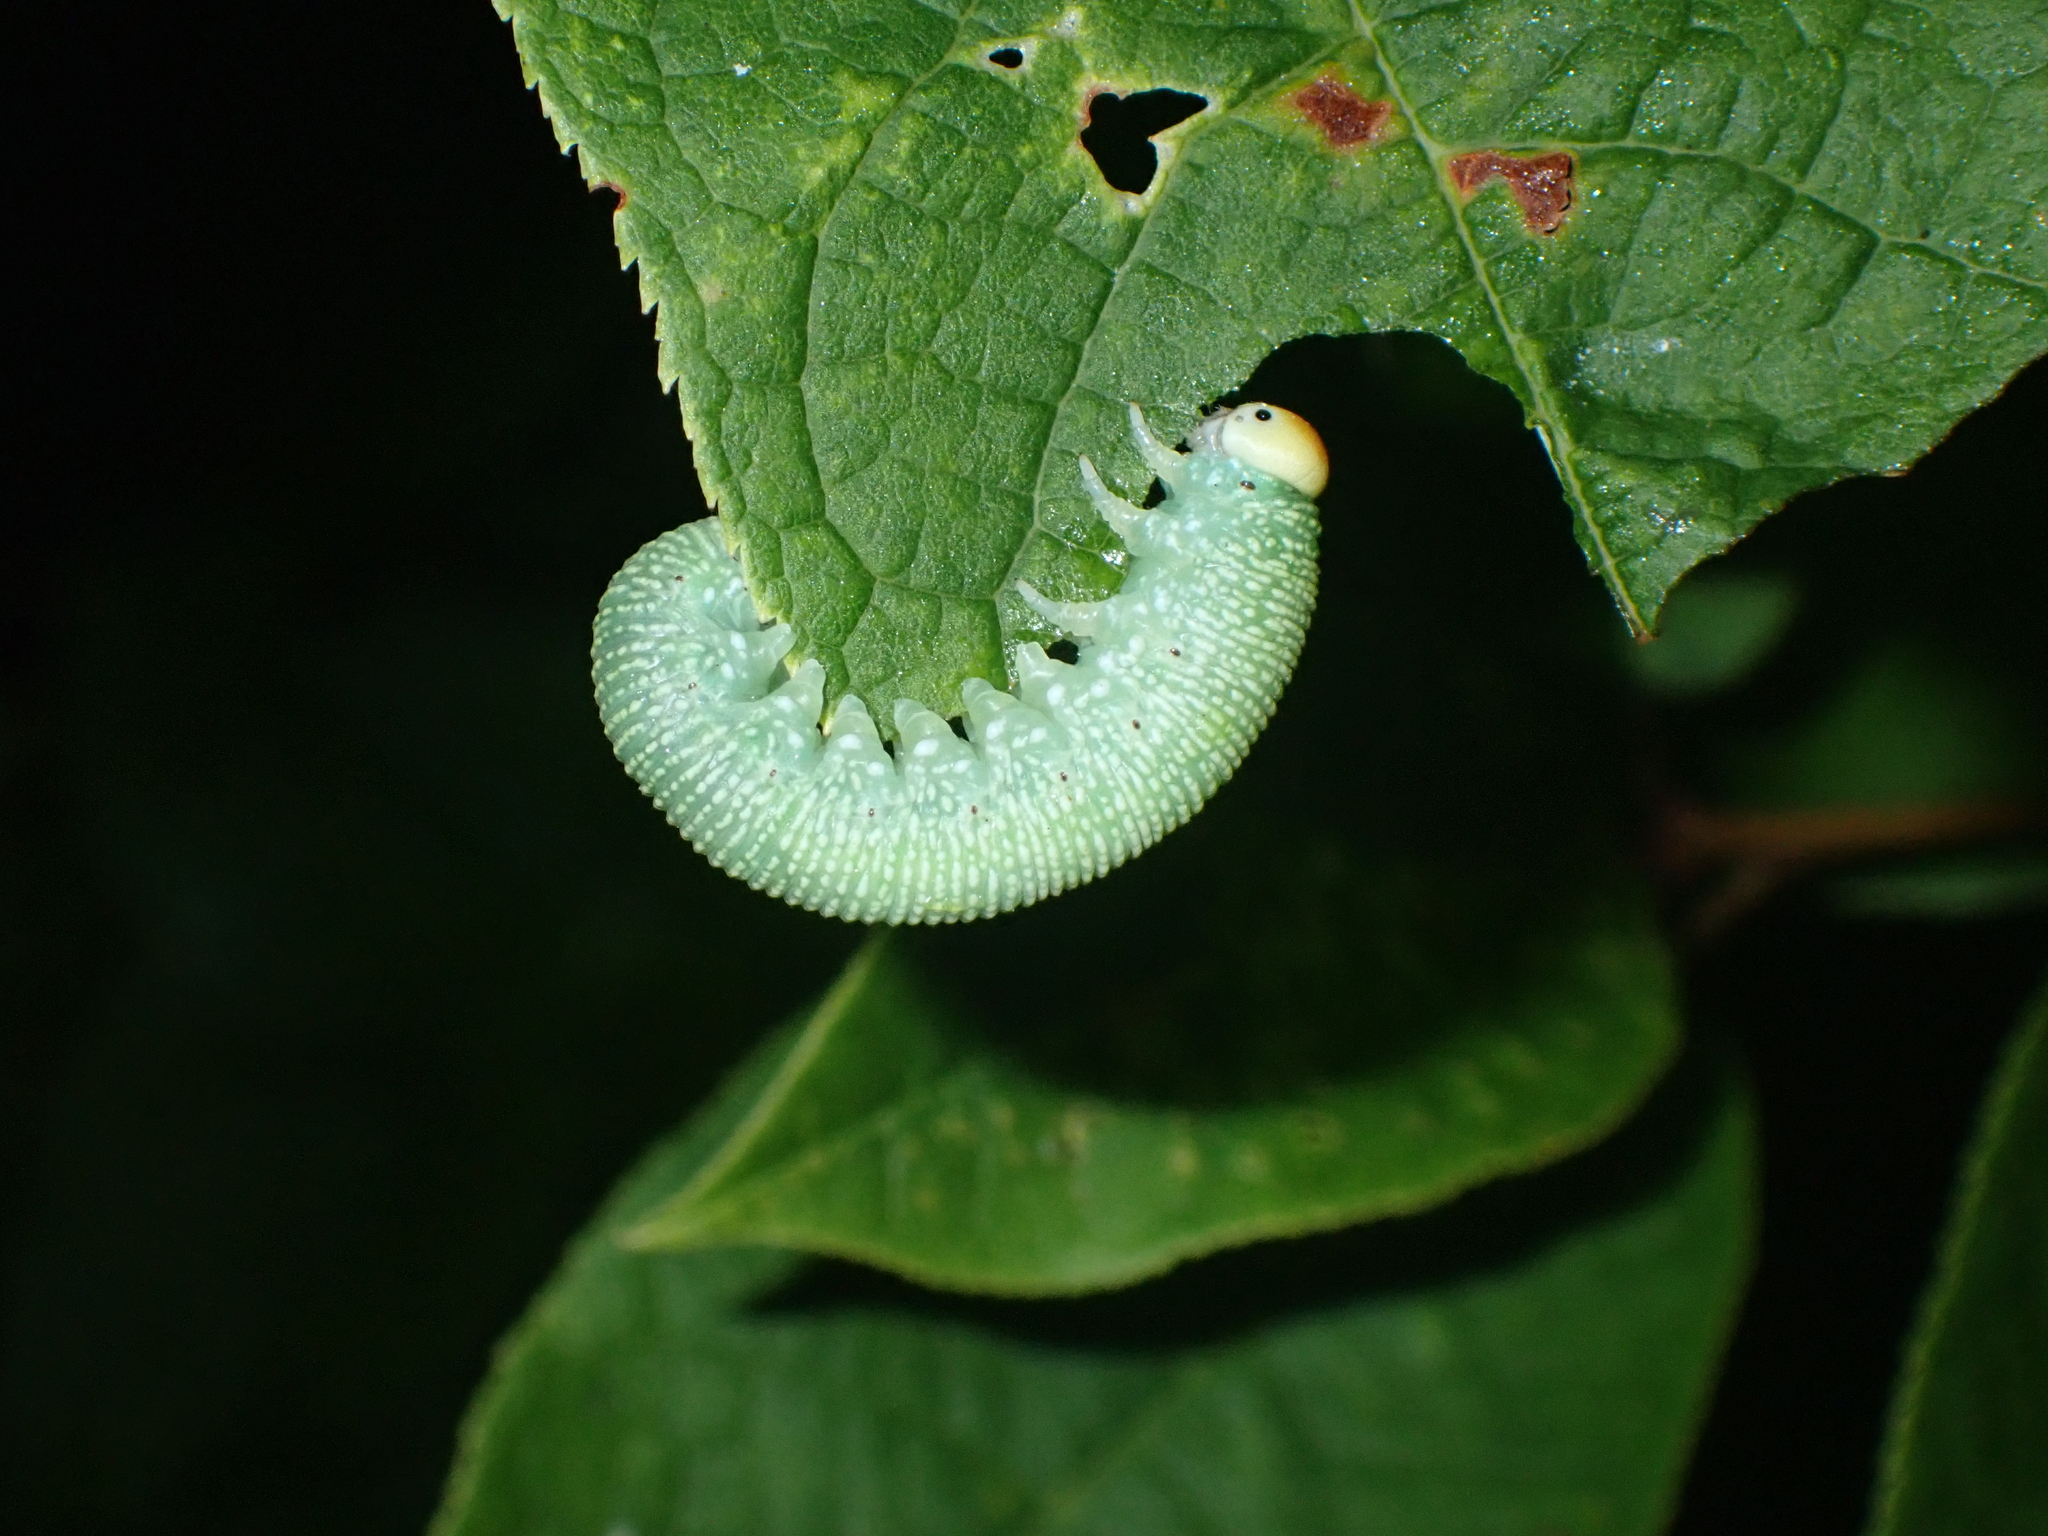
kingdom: Animalia
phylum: Arthropoda
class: Insecta
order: Hymenoptera
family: Cimbicidae
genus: Trichiosoma
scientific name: Trichiosoma
